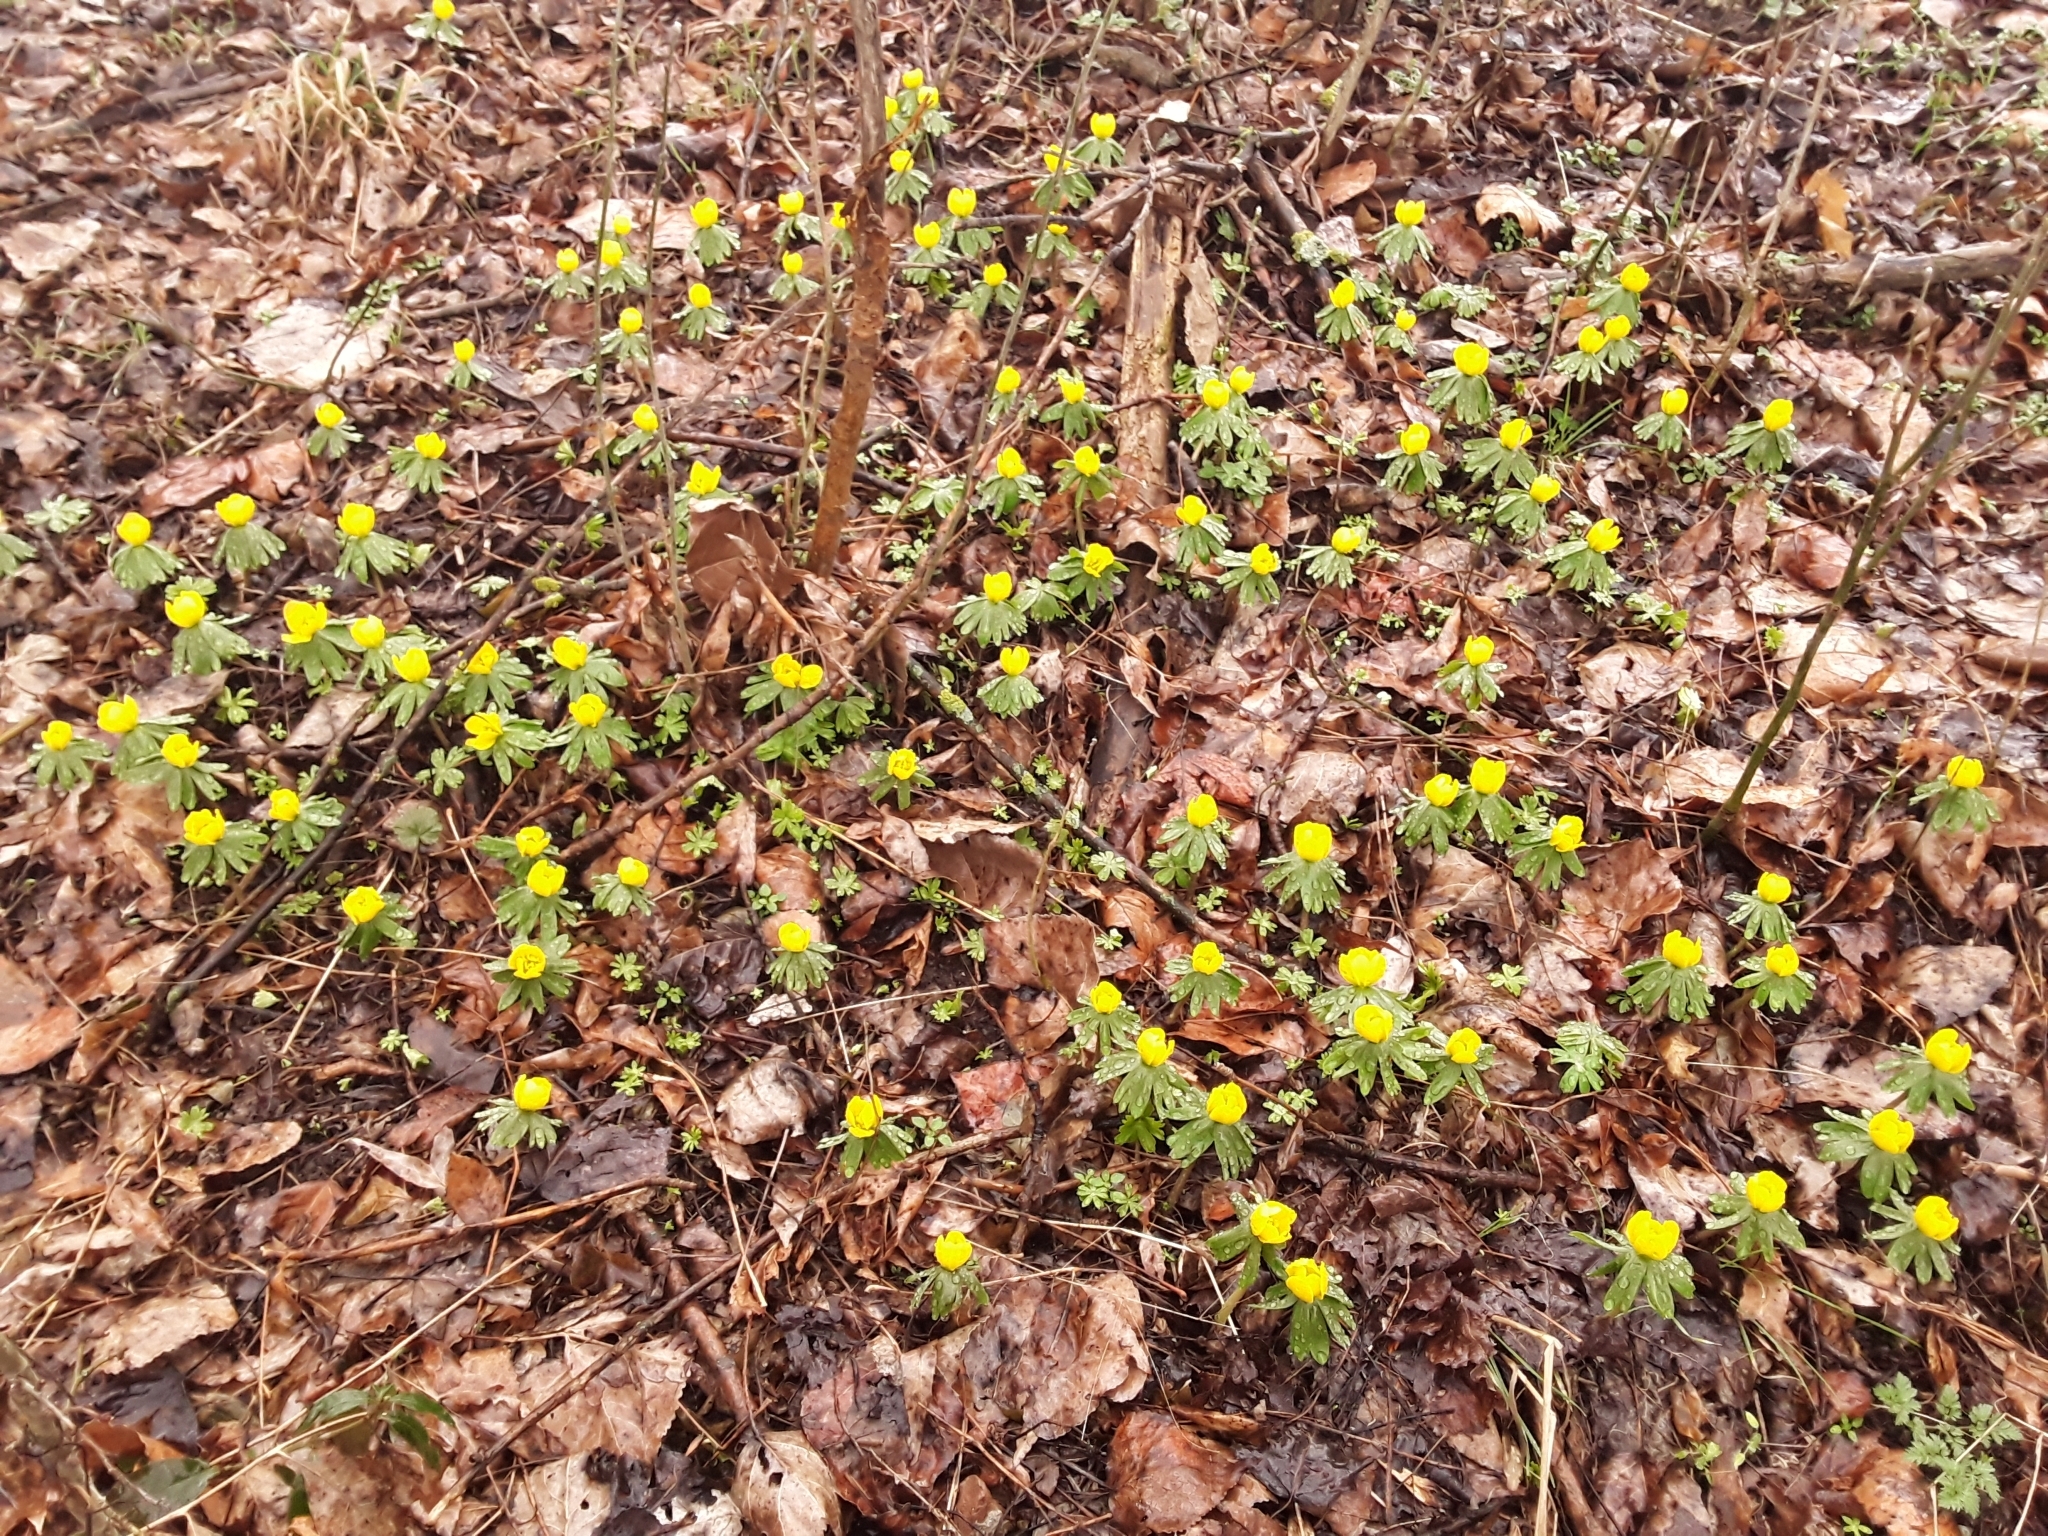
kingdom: Plantae
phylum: Tracheophyta
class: Magnoliopsida
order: Ranunculales
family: Ranunculaceae
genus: Eranthis
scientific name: Eranthis hyemalis
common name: Winter aconite
